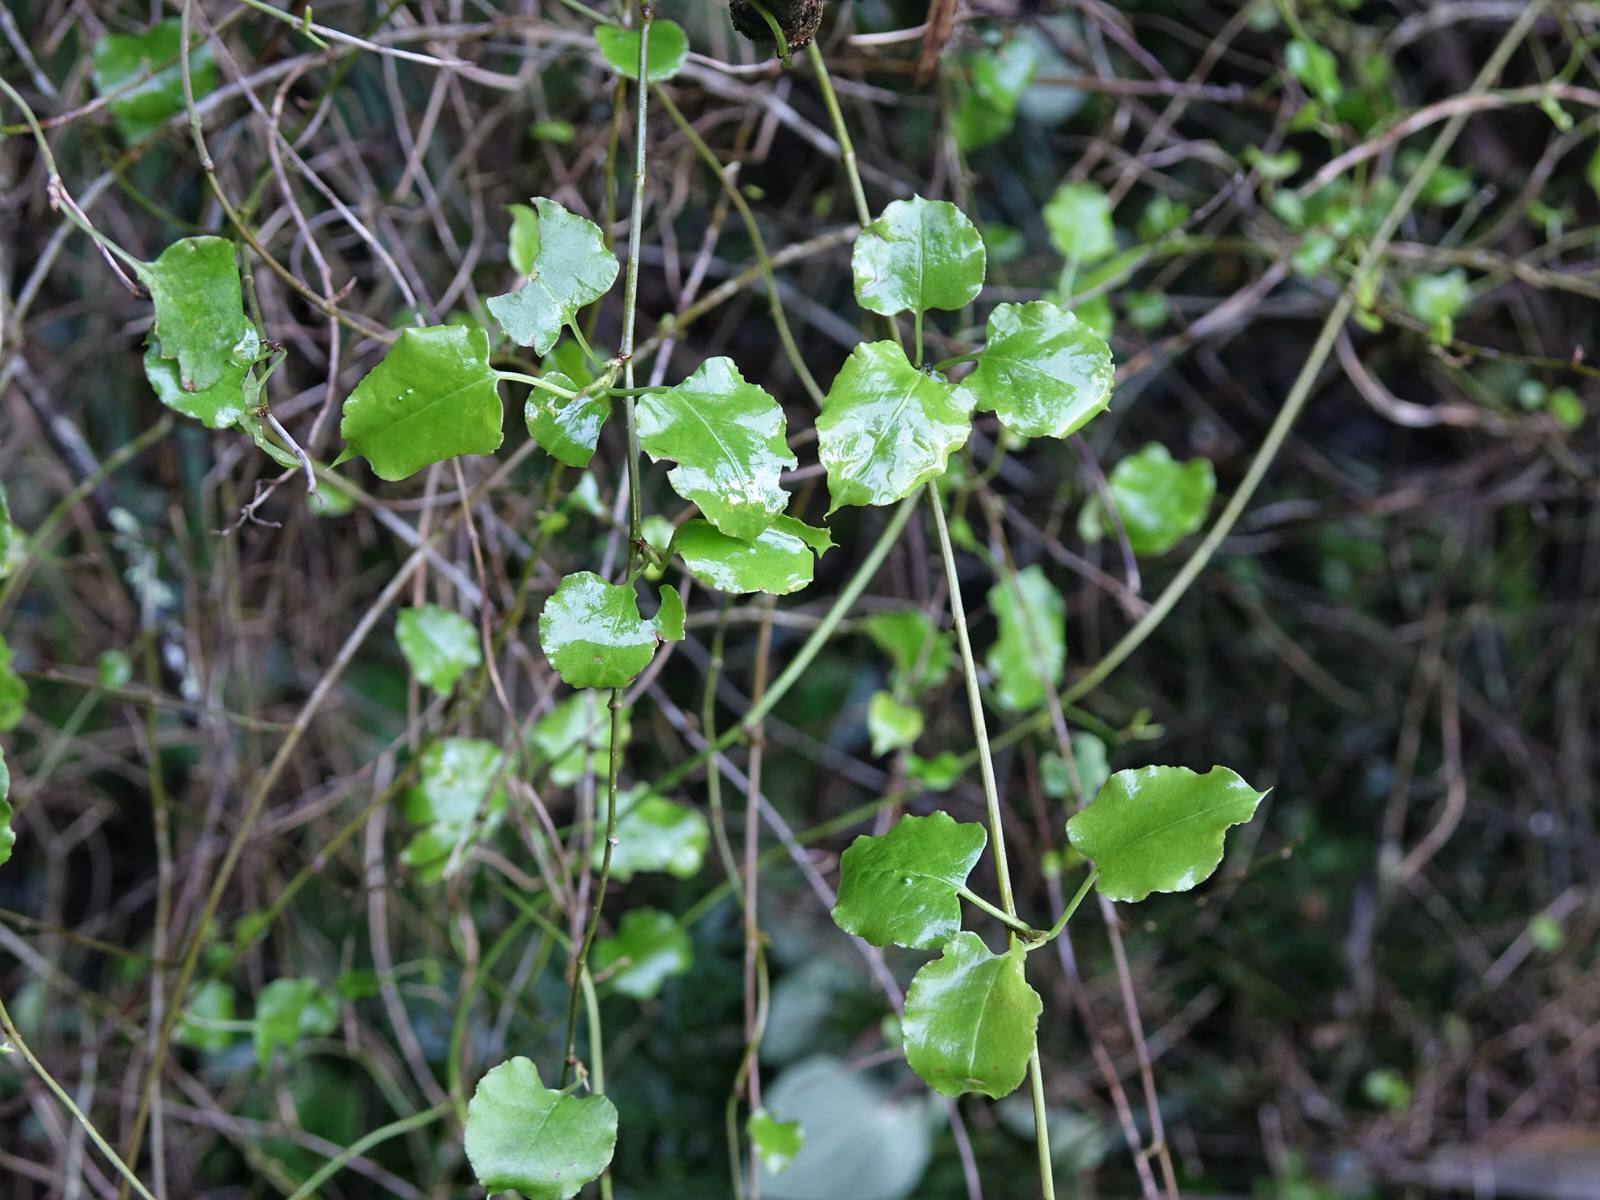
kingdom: Plantae
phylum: Tracheophyta
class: Magnoliopsida
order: Caryophyllales
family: Polygonaceae
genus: Muehlenbeckia
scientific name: Muehlenbeckia australis
